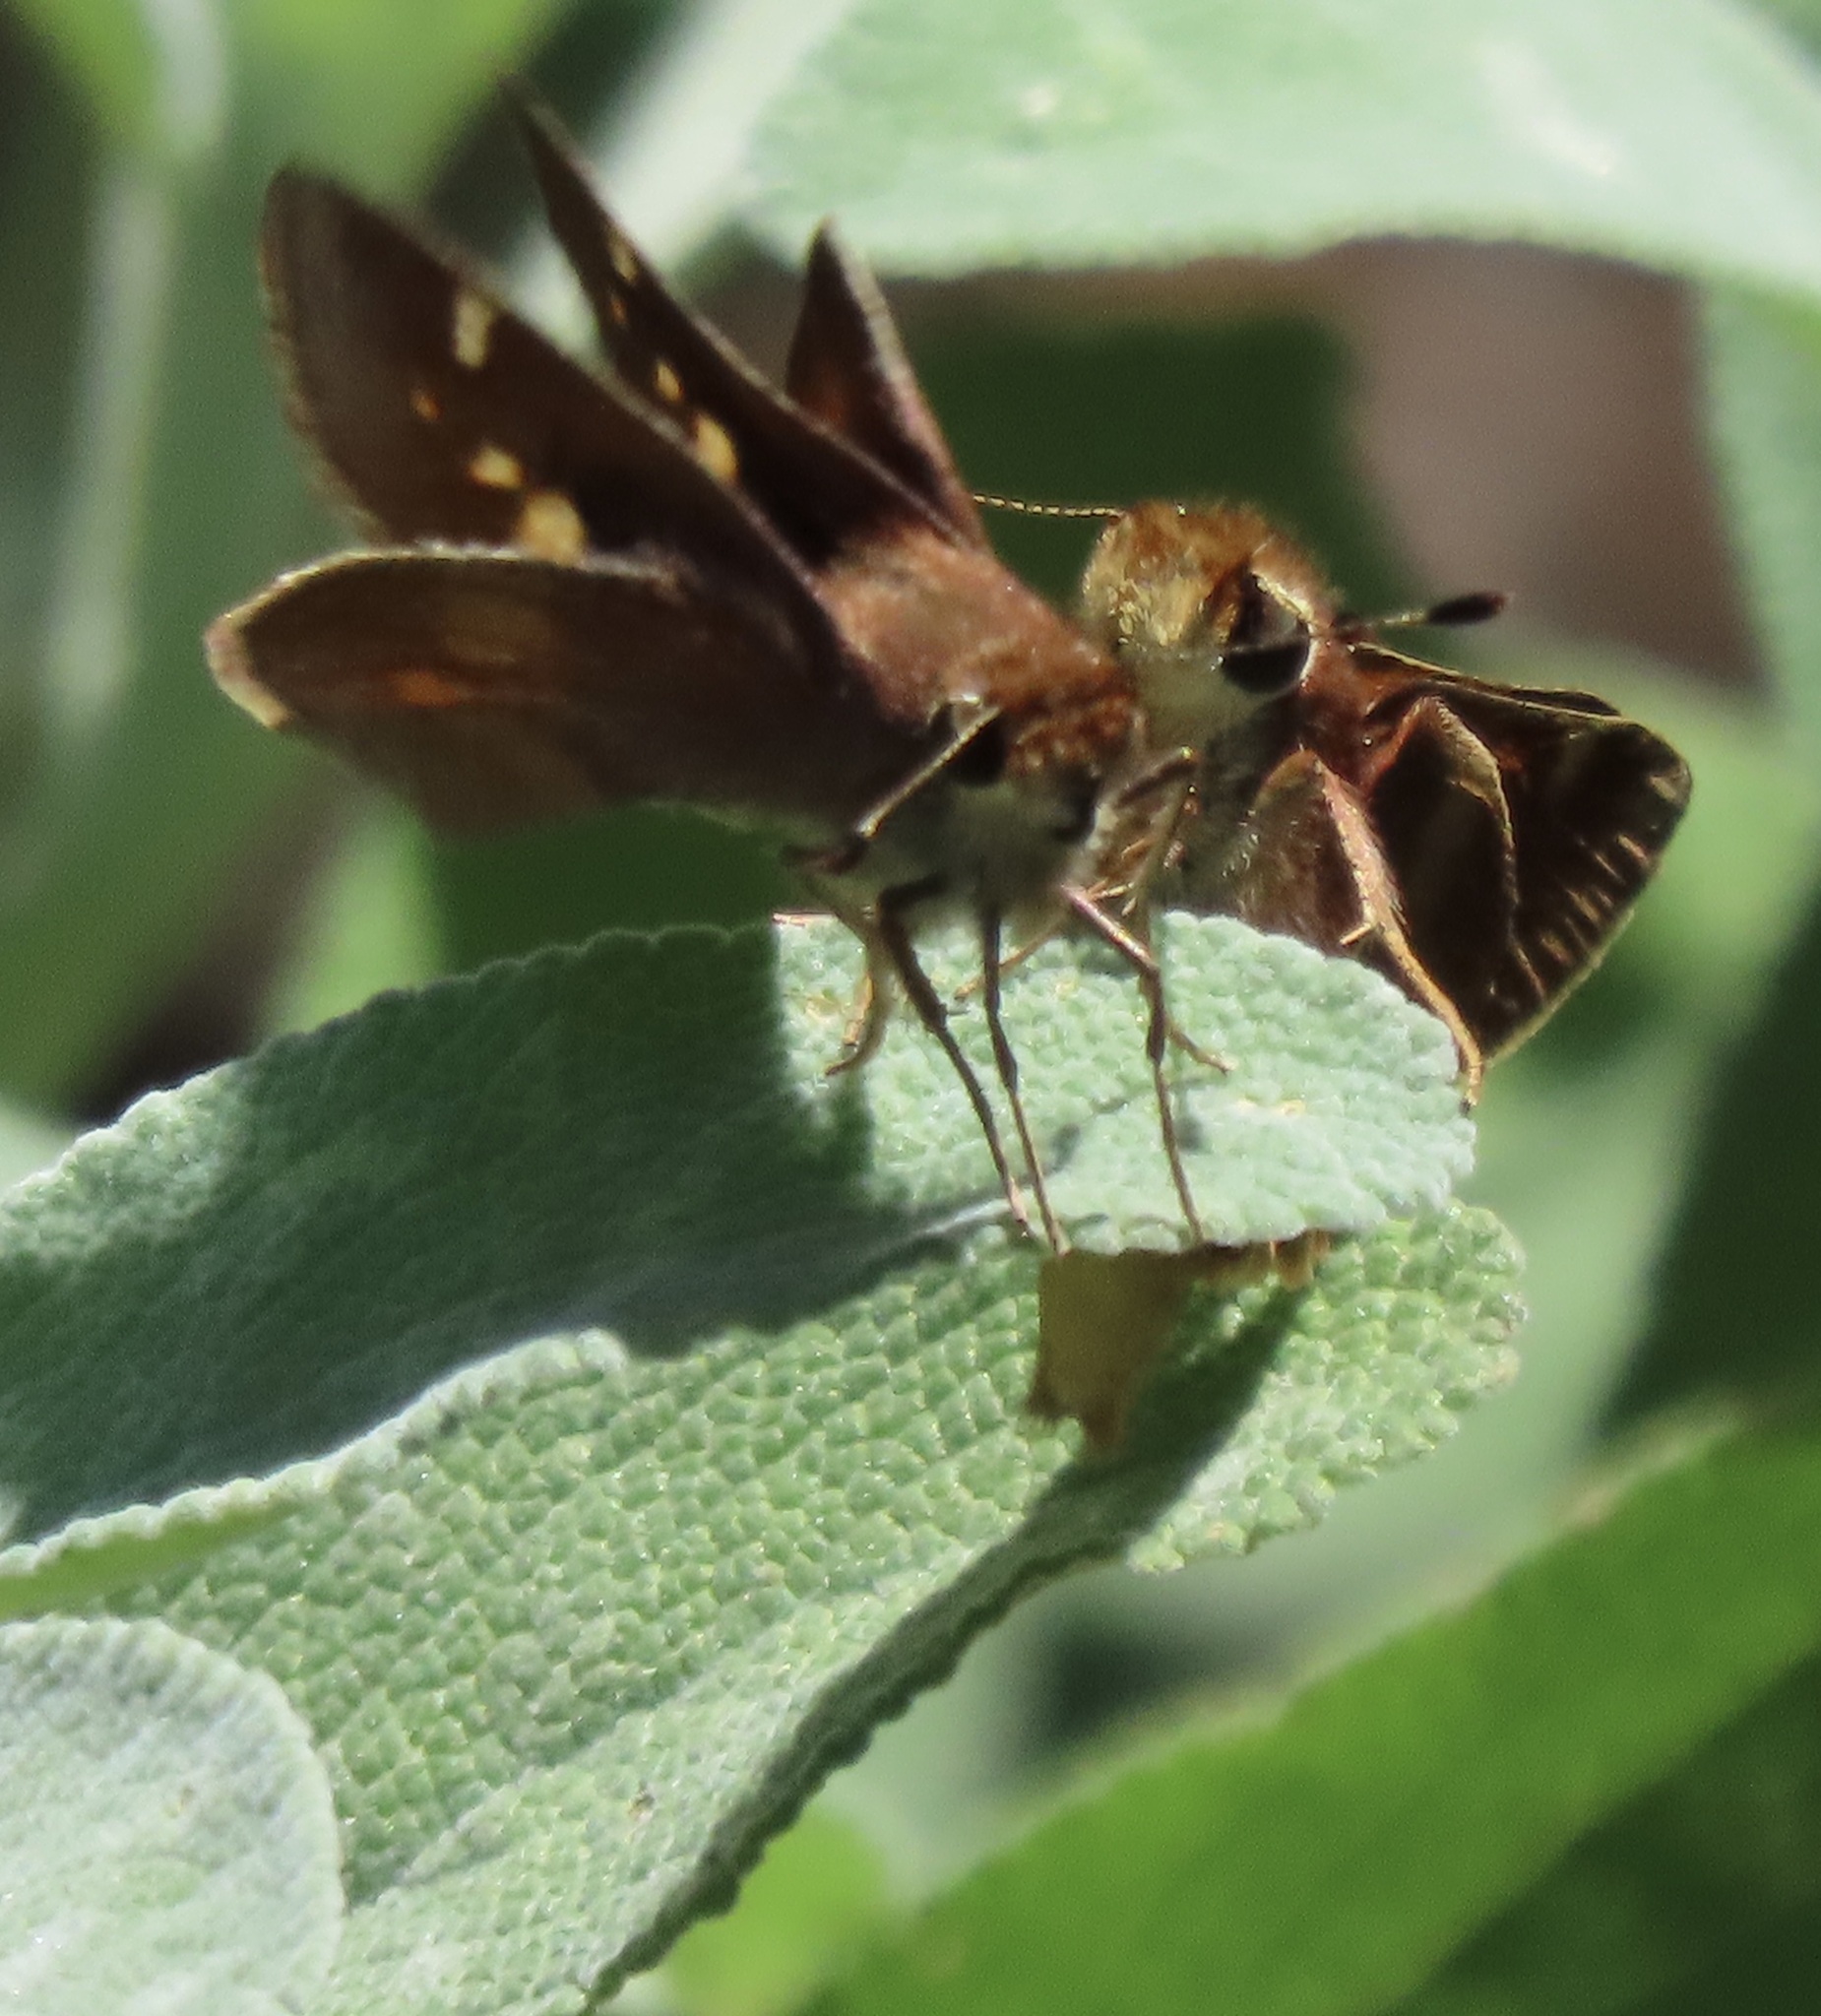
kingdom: Animalia
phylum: Arthropoda
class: Insecta
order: Lepidoptera
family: Hesperiidae
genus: Lon
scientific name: Lon melane
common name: Umber skipper
